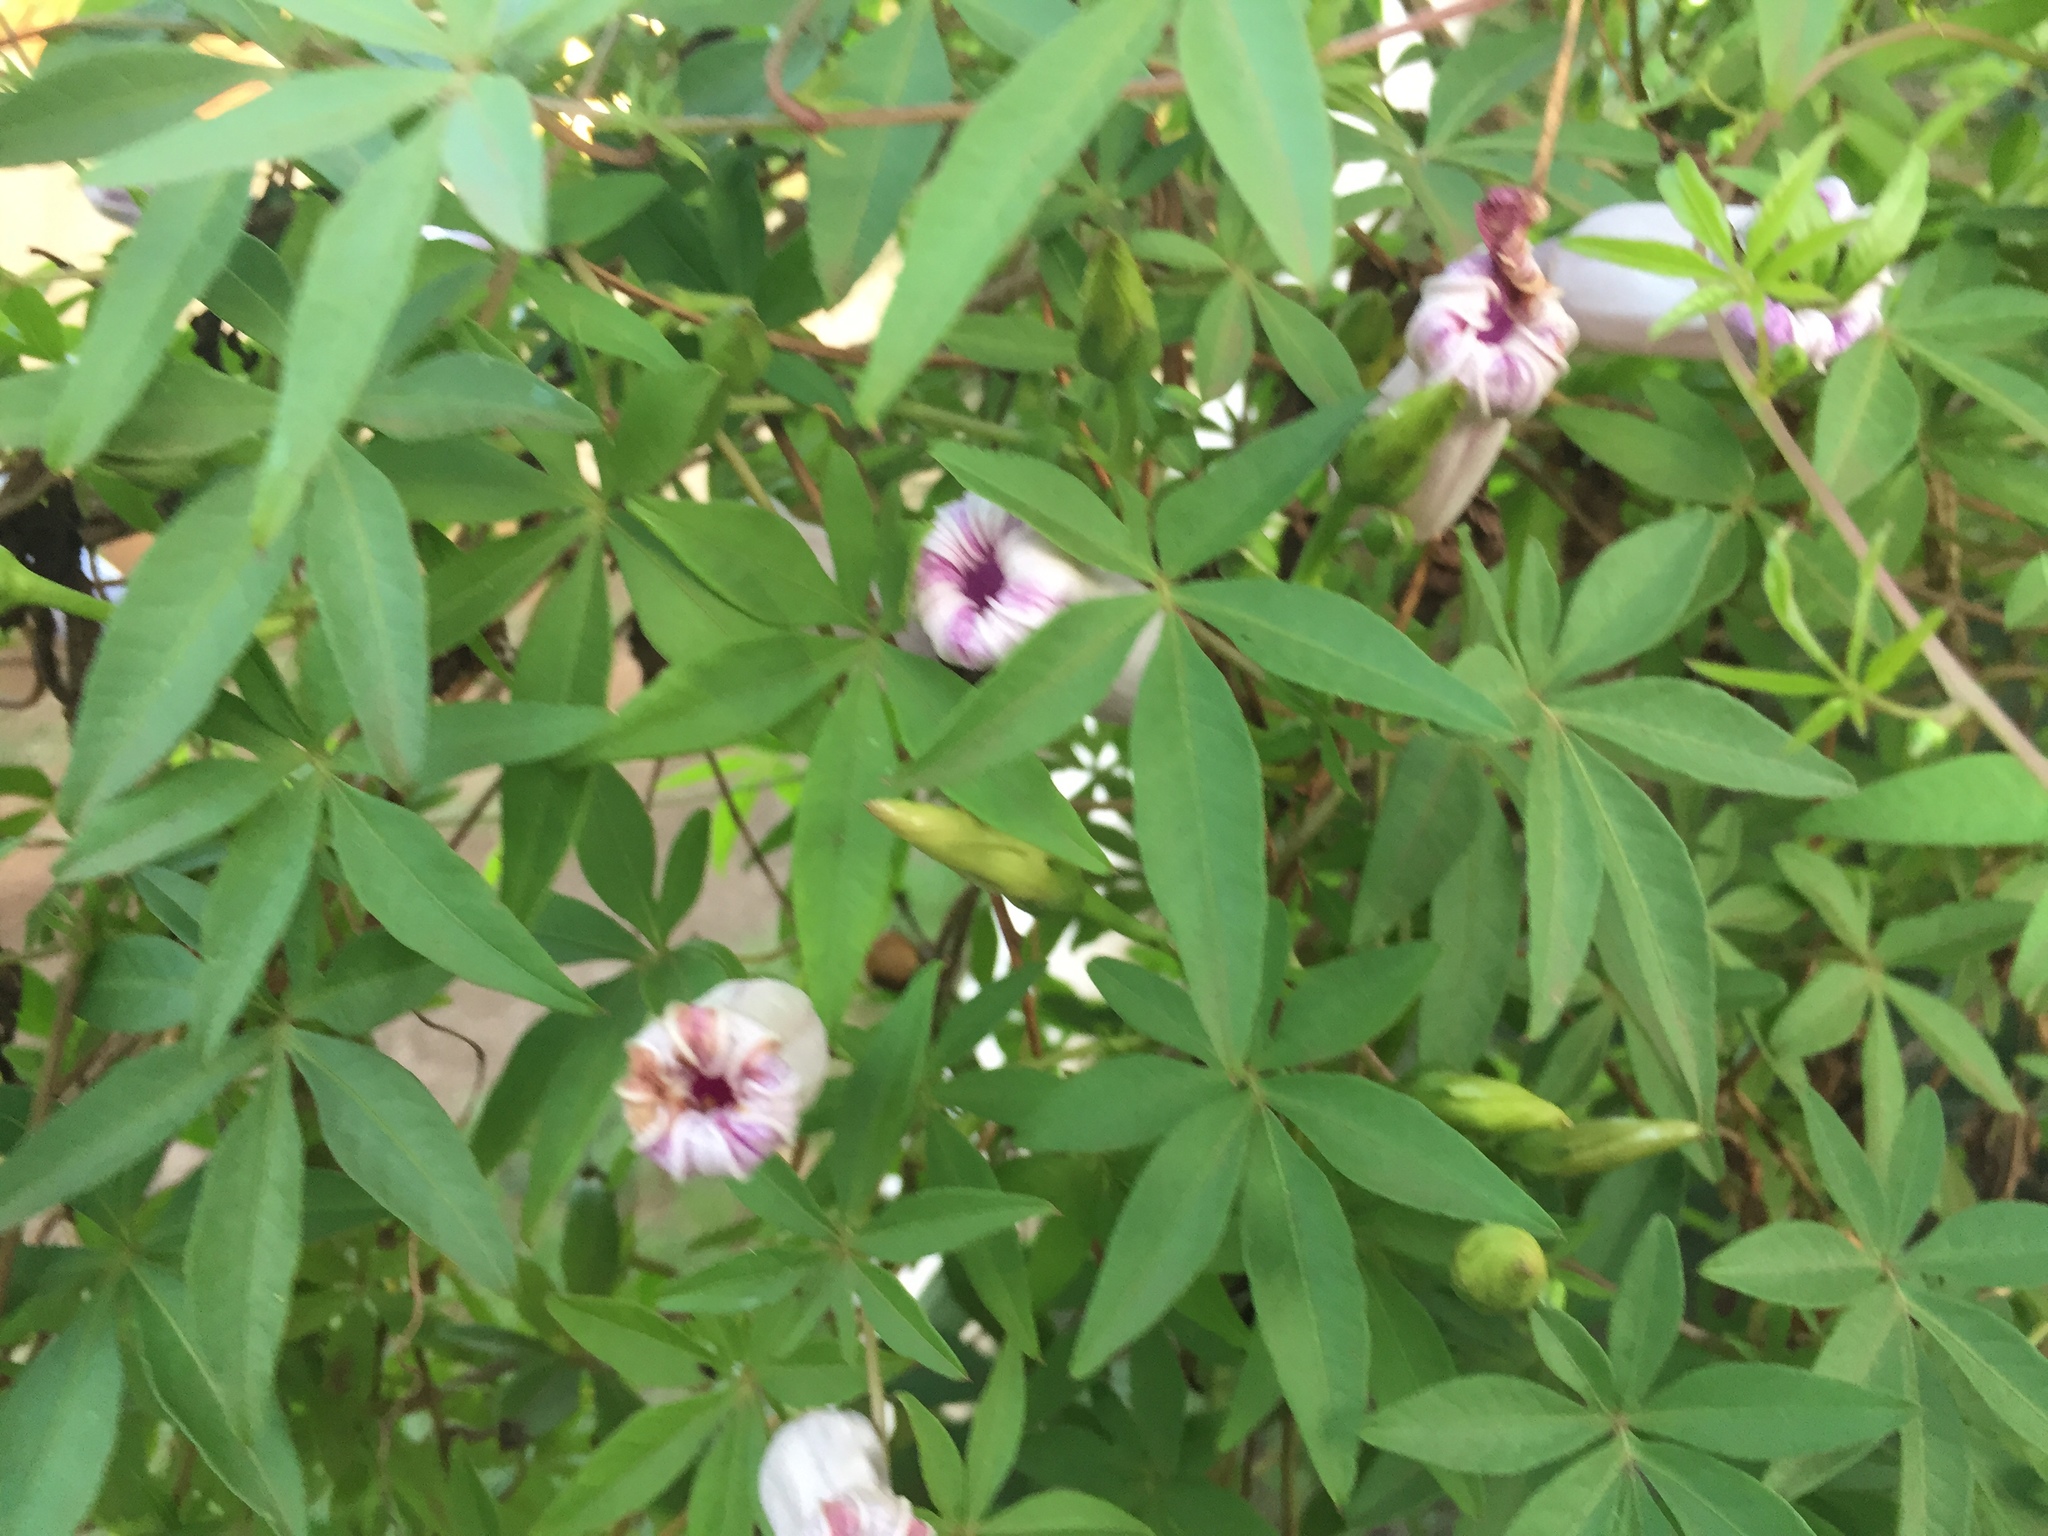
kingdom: Plantae
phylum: Tracheophyta
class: Magnoliopsida
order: Solanales
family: Convolvulaceae
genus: Ipomoea
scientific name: Ipomoea cairica
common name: Mile a minute vine
